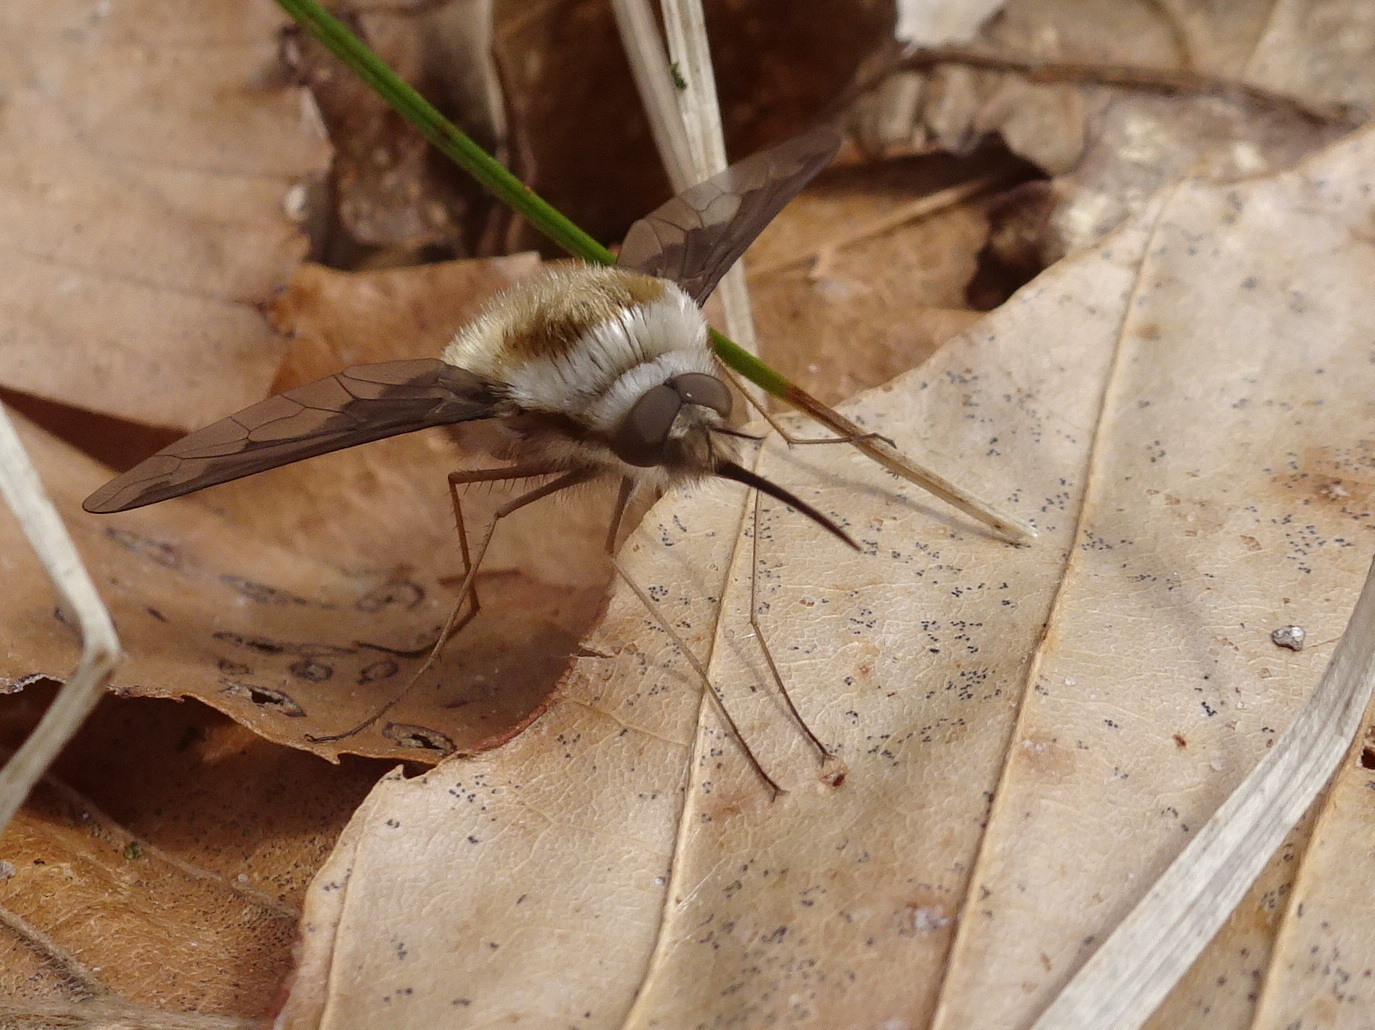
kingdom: Animalia
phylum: Arthropoda
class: Insecta
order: Diptera
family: Bombyliidae
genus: Bombylius
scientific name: Bombylius major
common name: Bee fly
